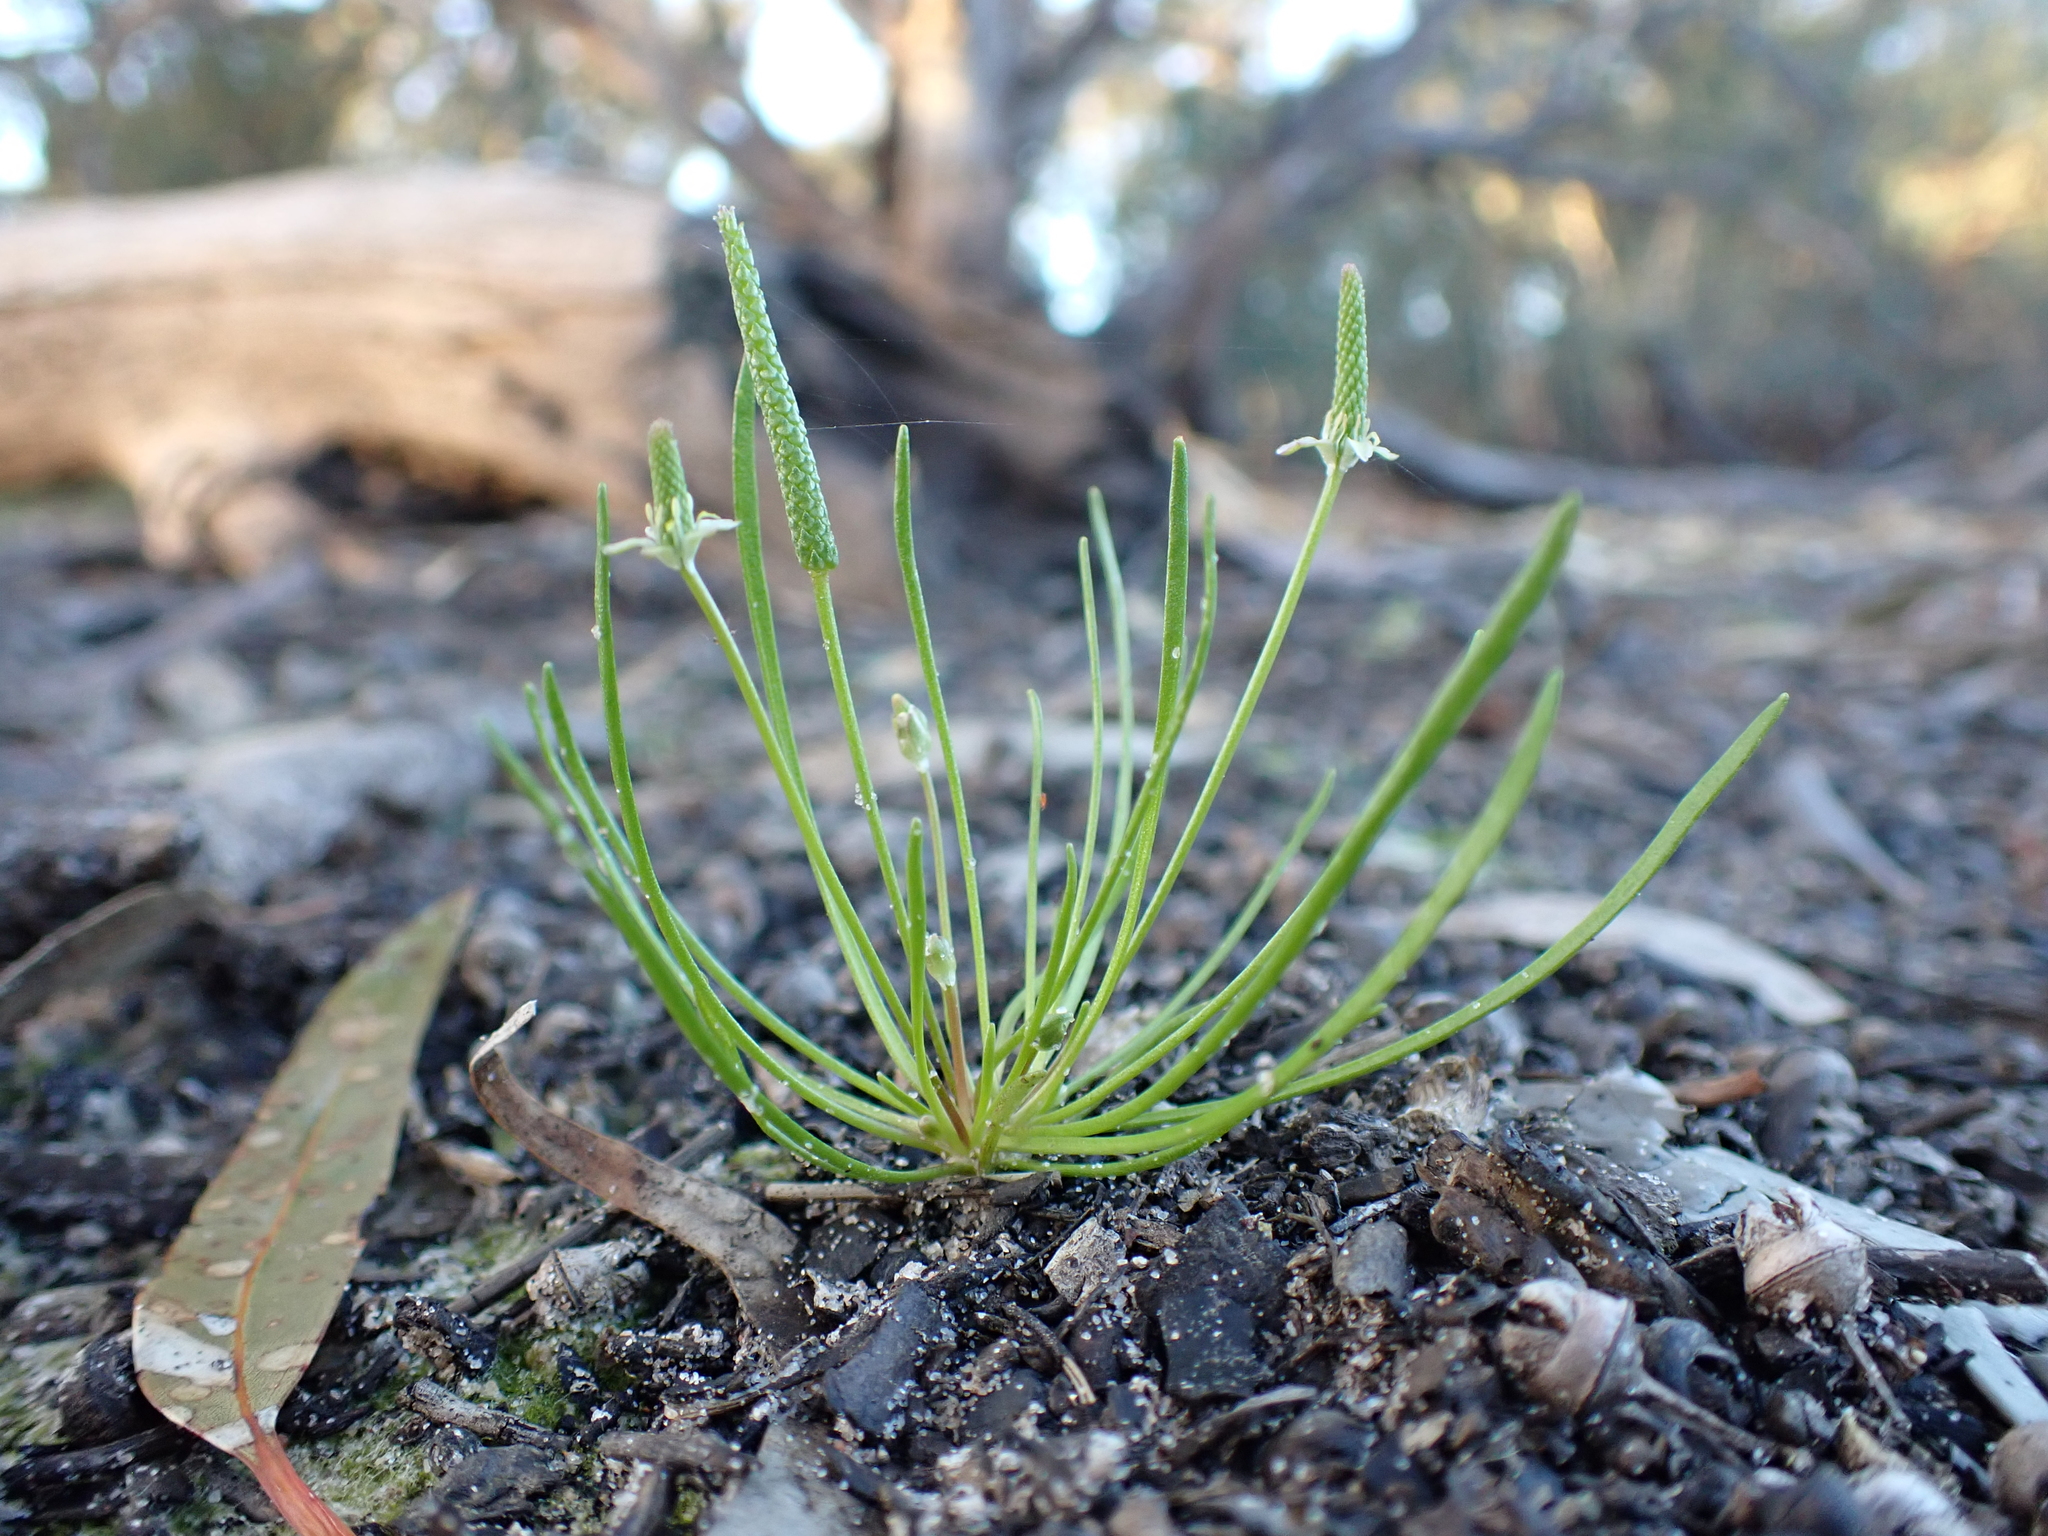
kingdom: Plantae
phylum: Tracheophyta
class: Magnoliopsida
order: Ranunculales
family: Ranunculaceae
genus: Myosurus
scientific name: Myosurus australis
